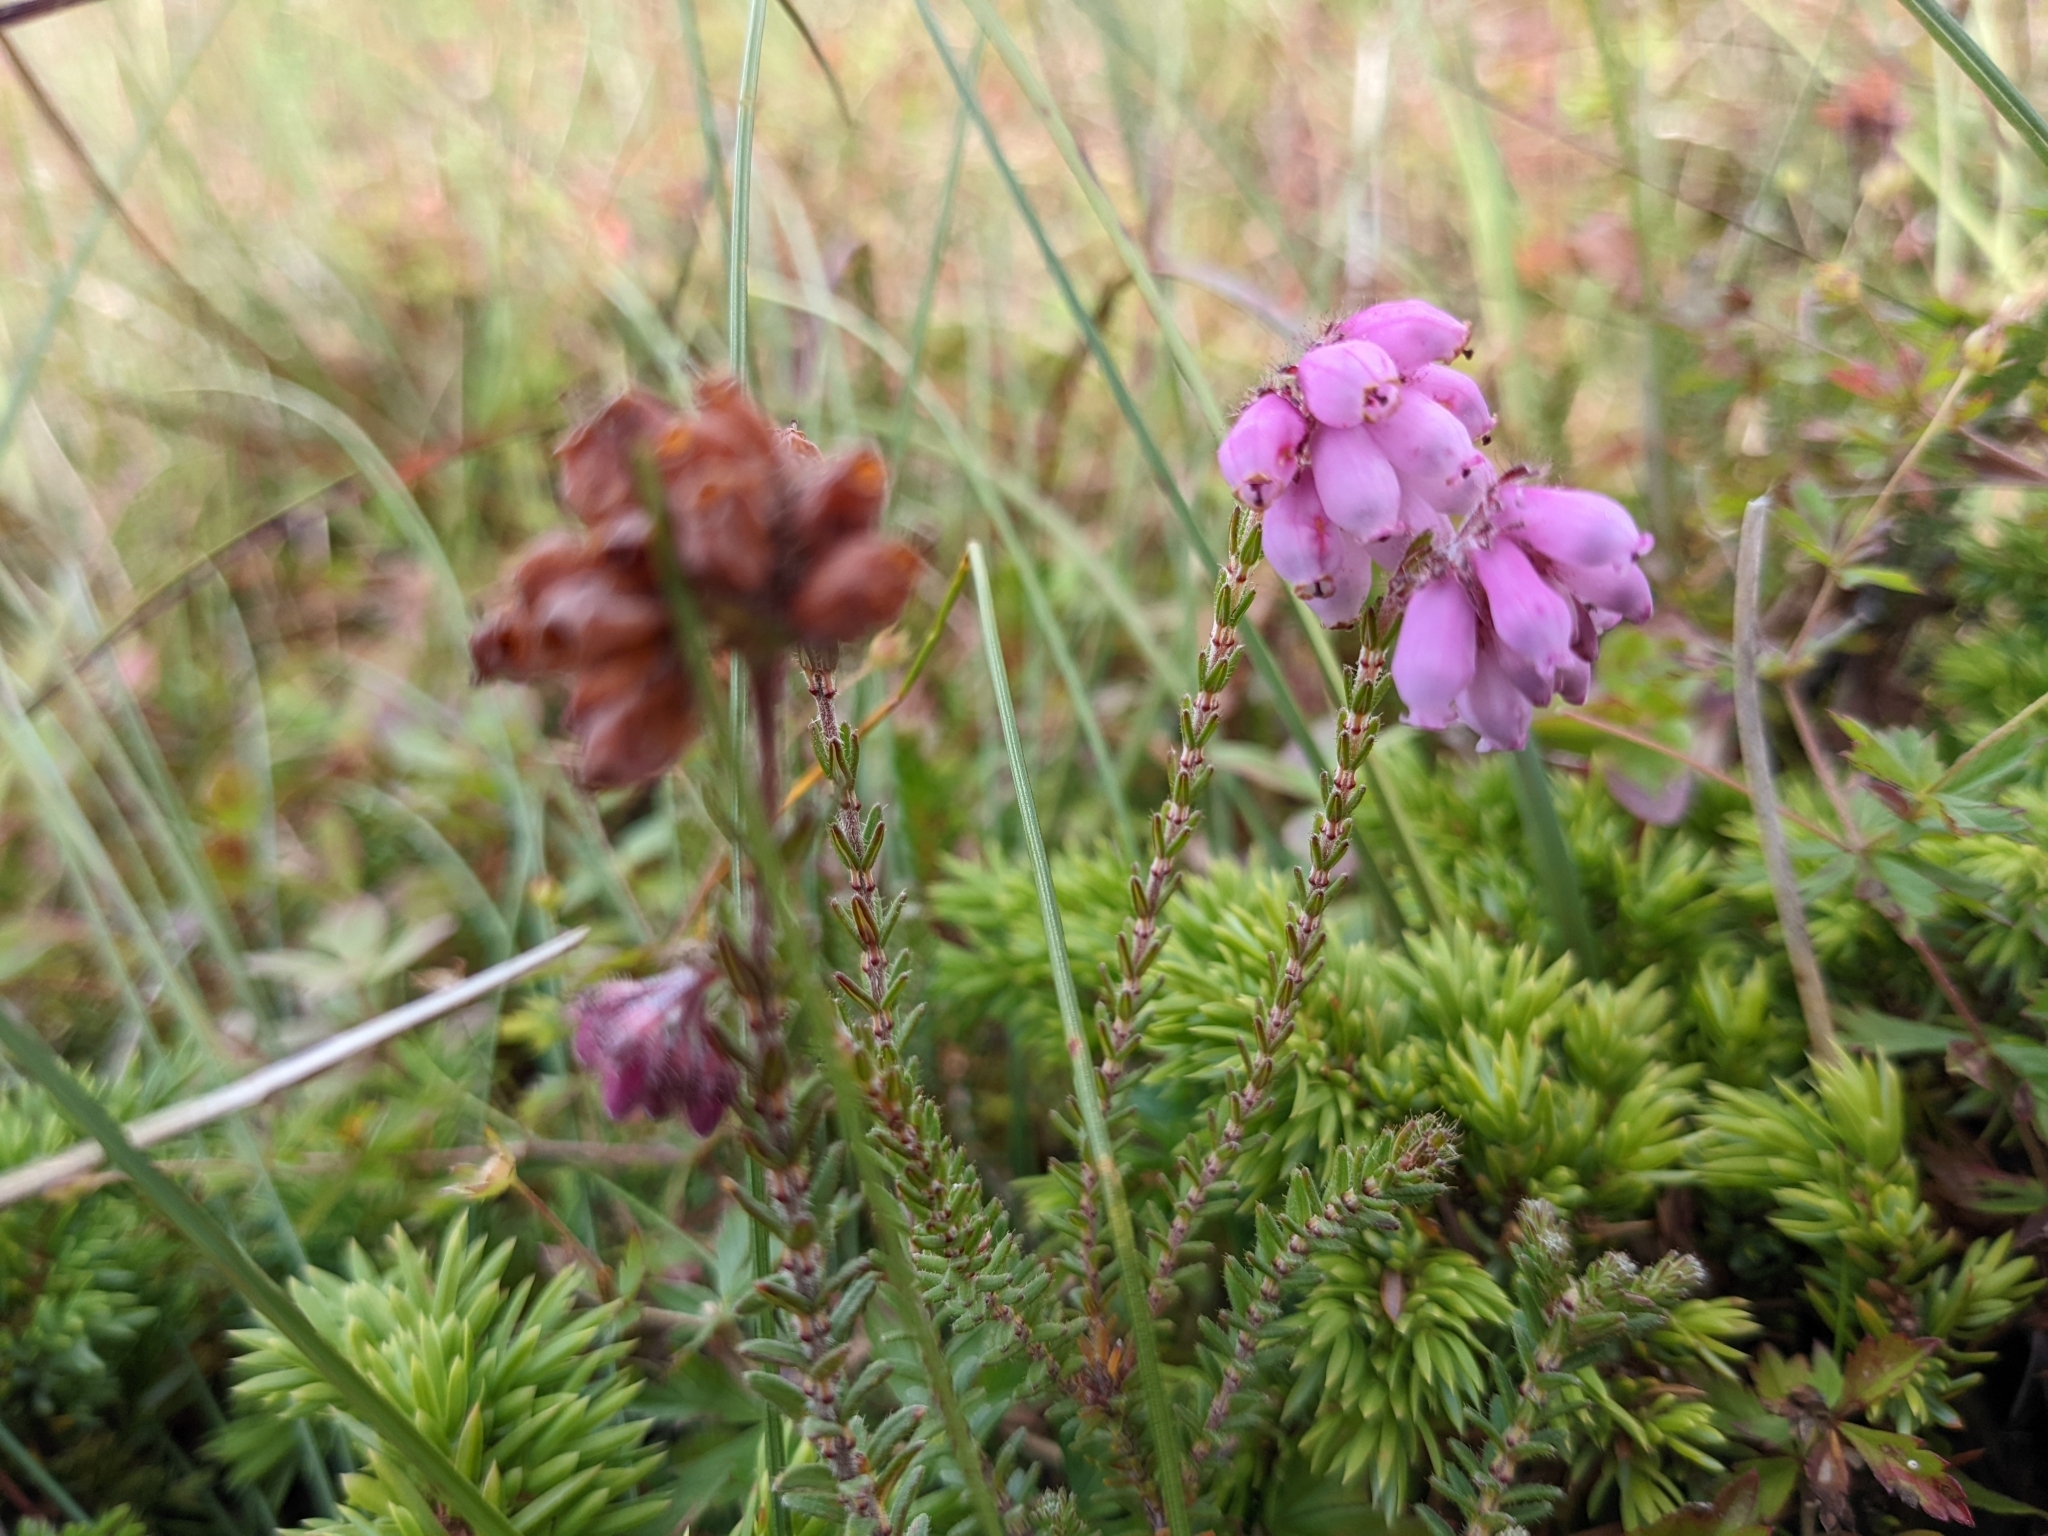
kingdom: Plantae
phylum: Tracheophyta
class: Magnoliopsida
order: Ericales
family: Ericaceae
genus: Erica
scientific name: Erica tetralix
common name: Cross-leaved heath
